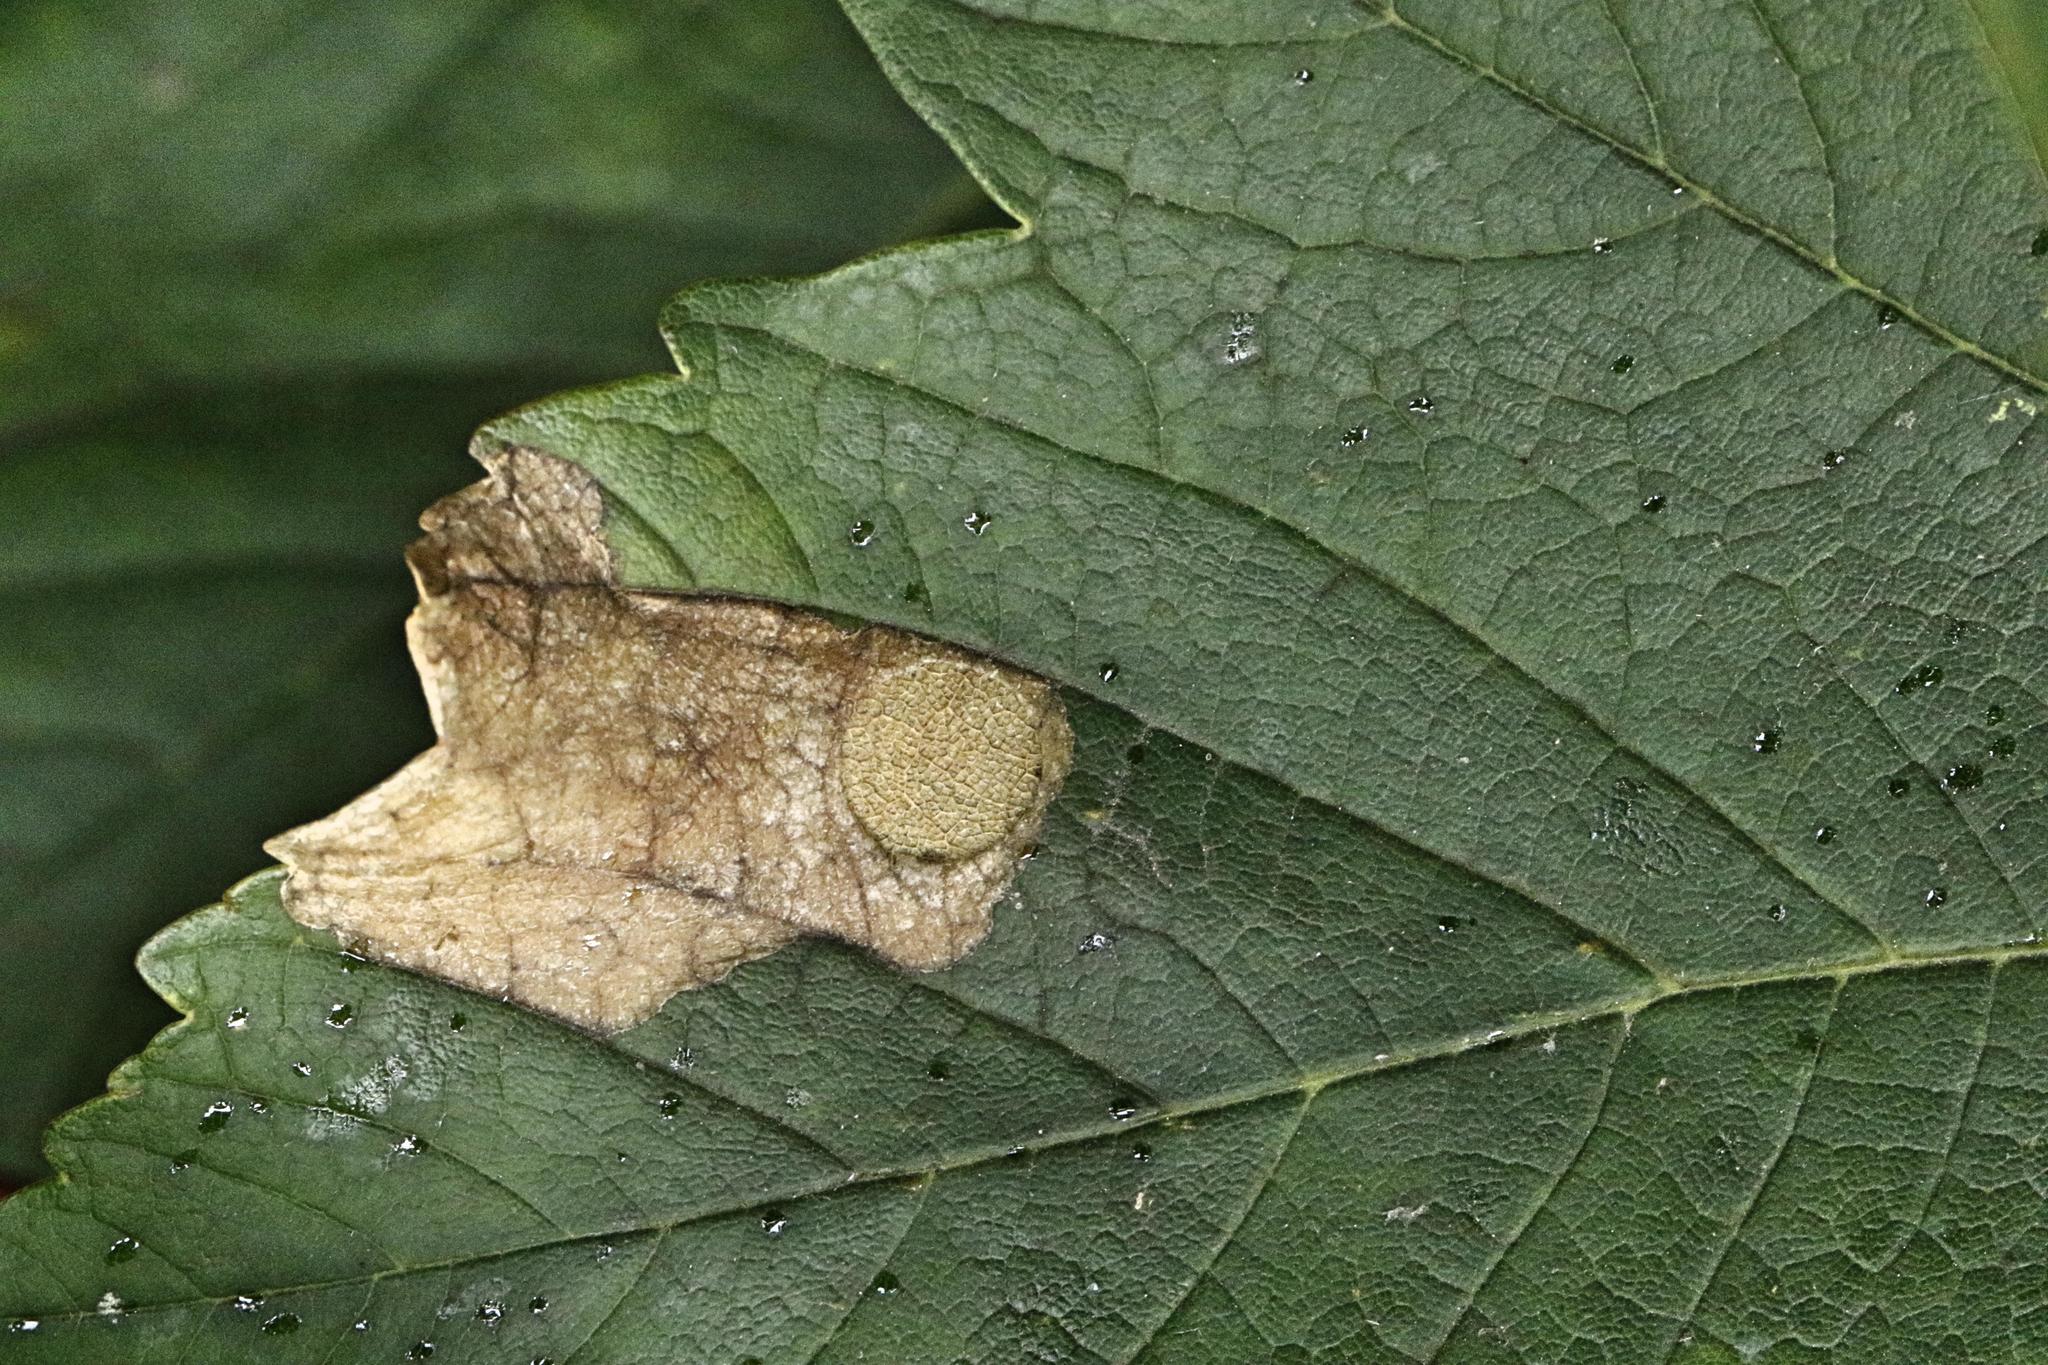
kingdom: Animalia
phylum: Arthropoda
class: Insecta
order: Hymenoptera
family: Tenthredinidae
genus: Heterarthrus
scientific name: Heterarthrus fiora
